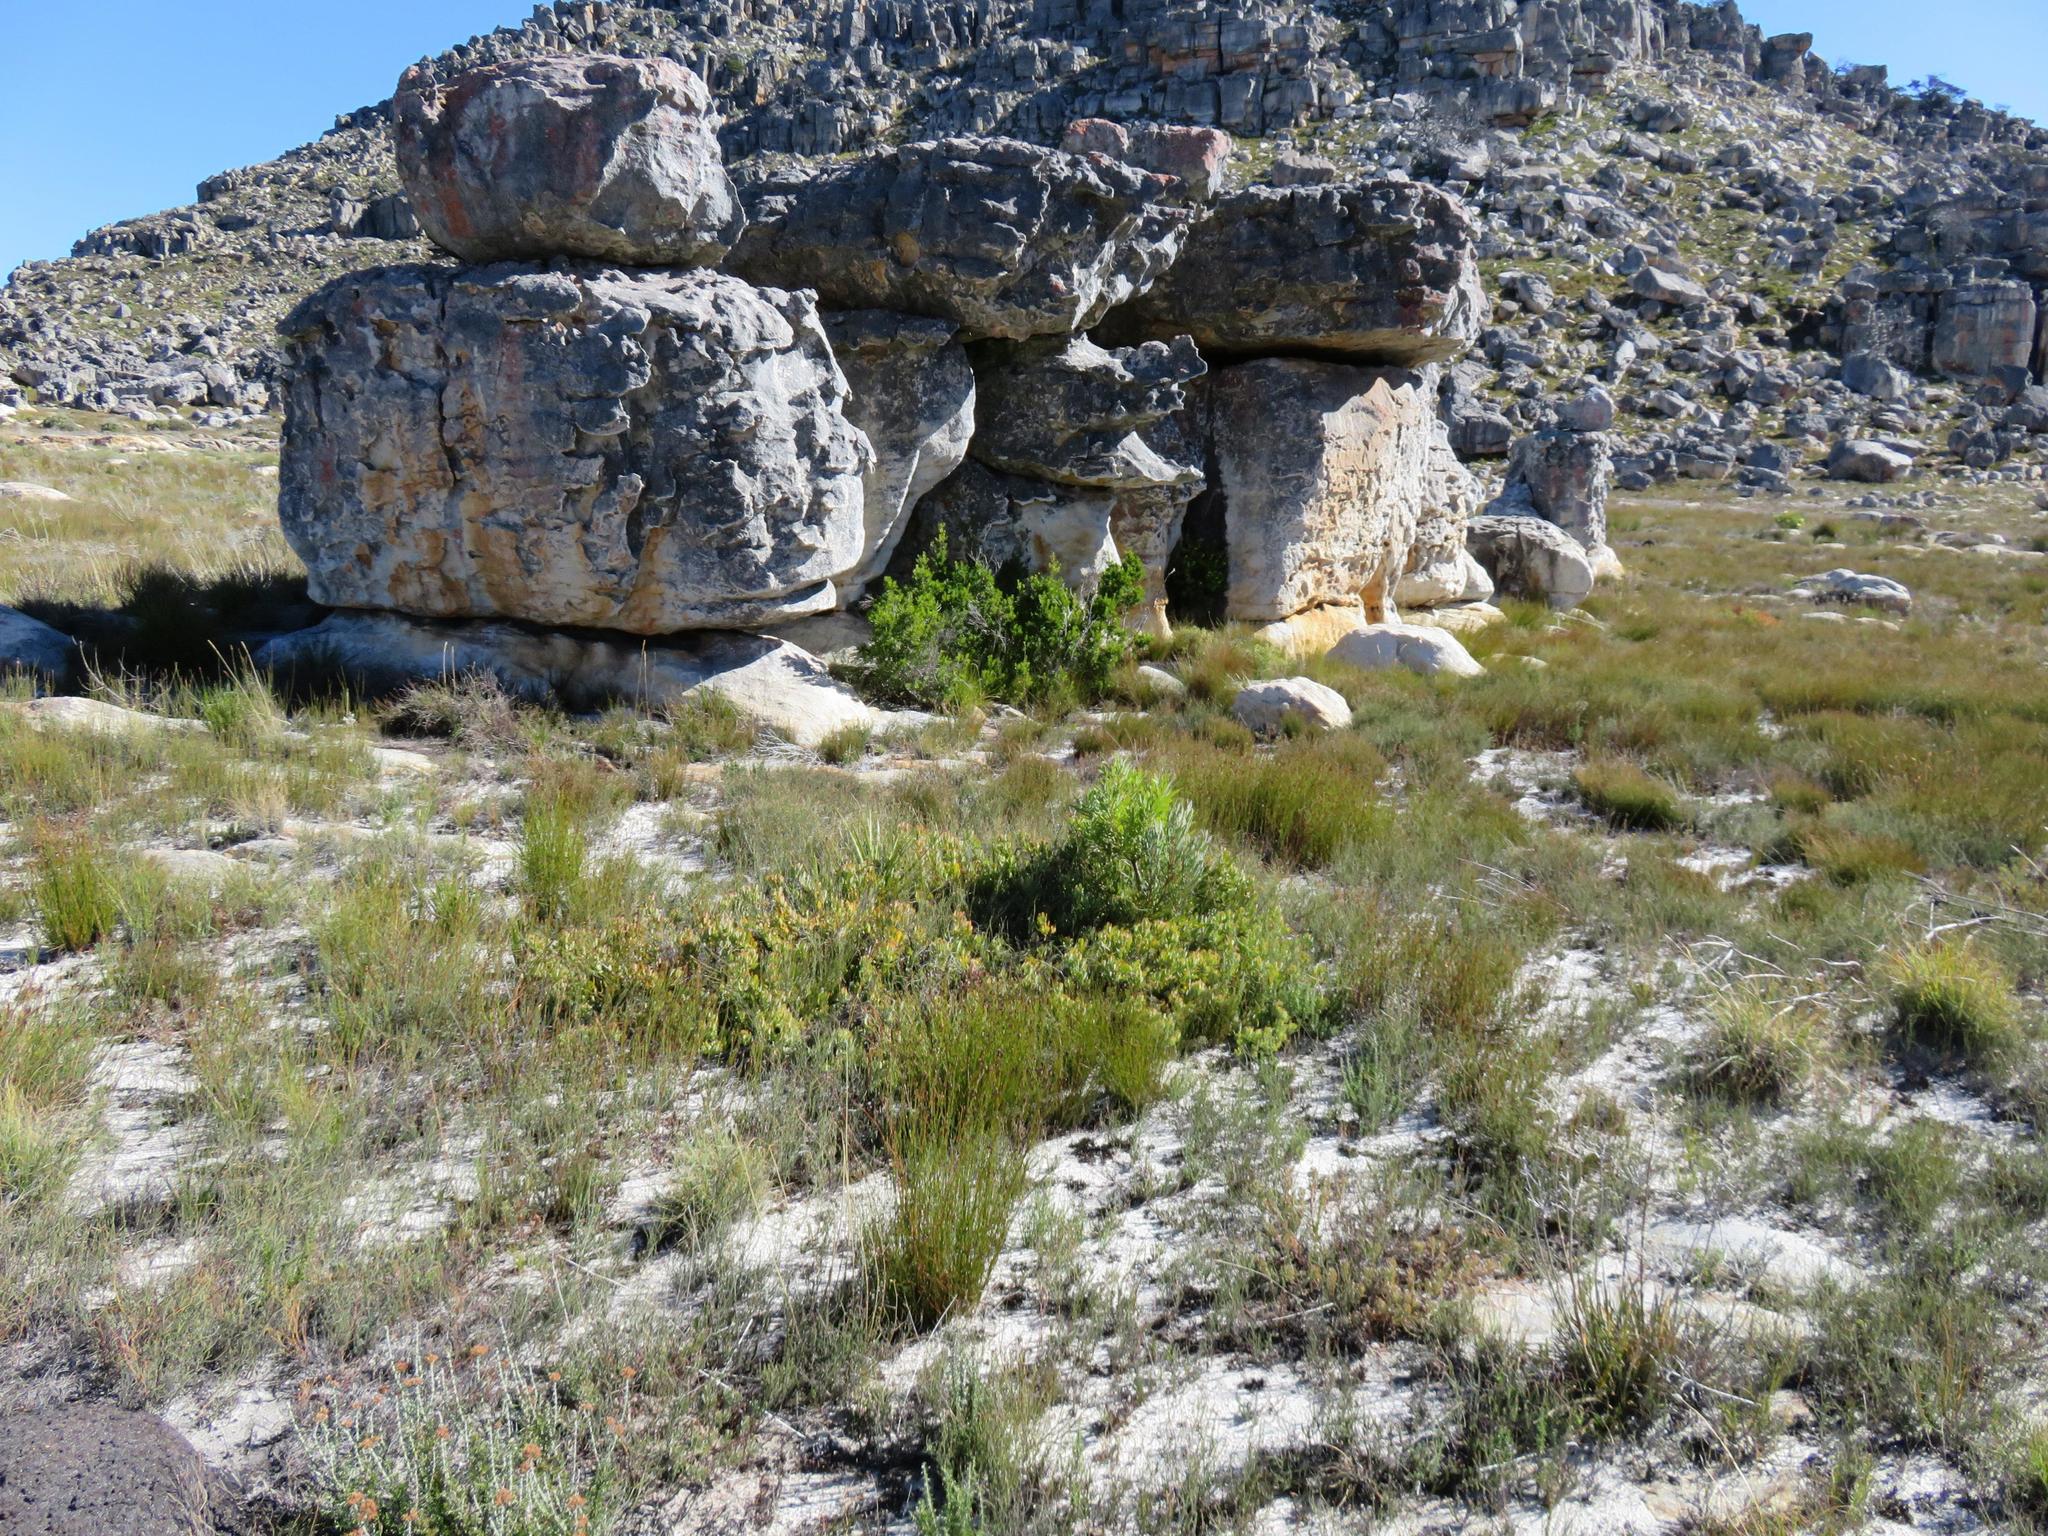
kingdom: Plantae
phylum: Tracheophyta
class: Magnoliopsida
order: Proteales
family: Proteaceae
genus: Leucadendron
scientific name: Leucadendron arcuatum
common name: Red-edge conebush
